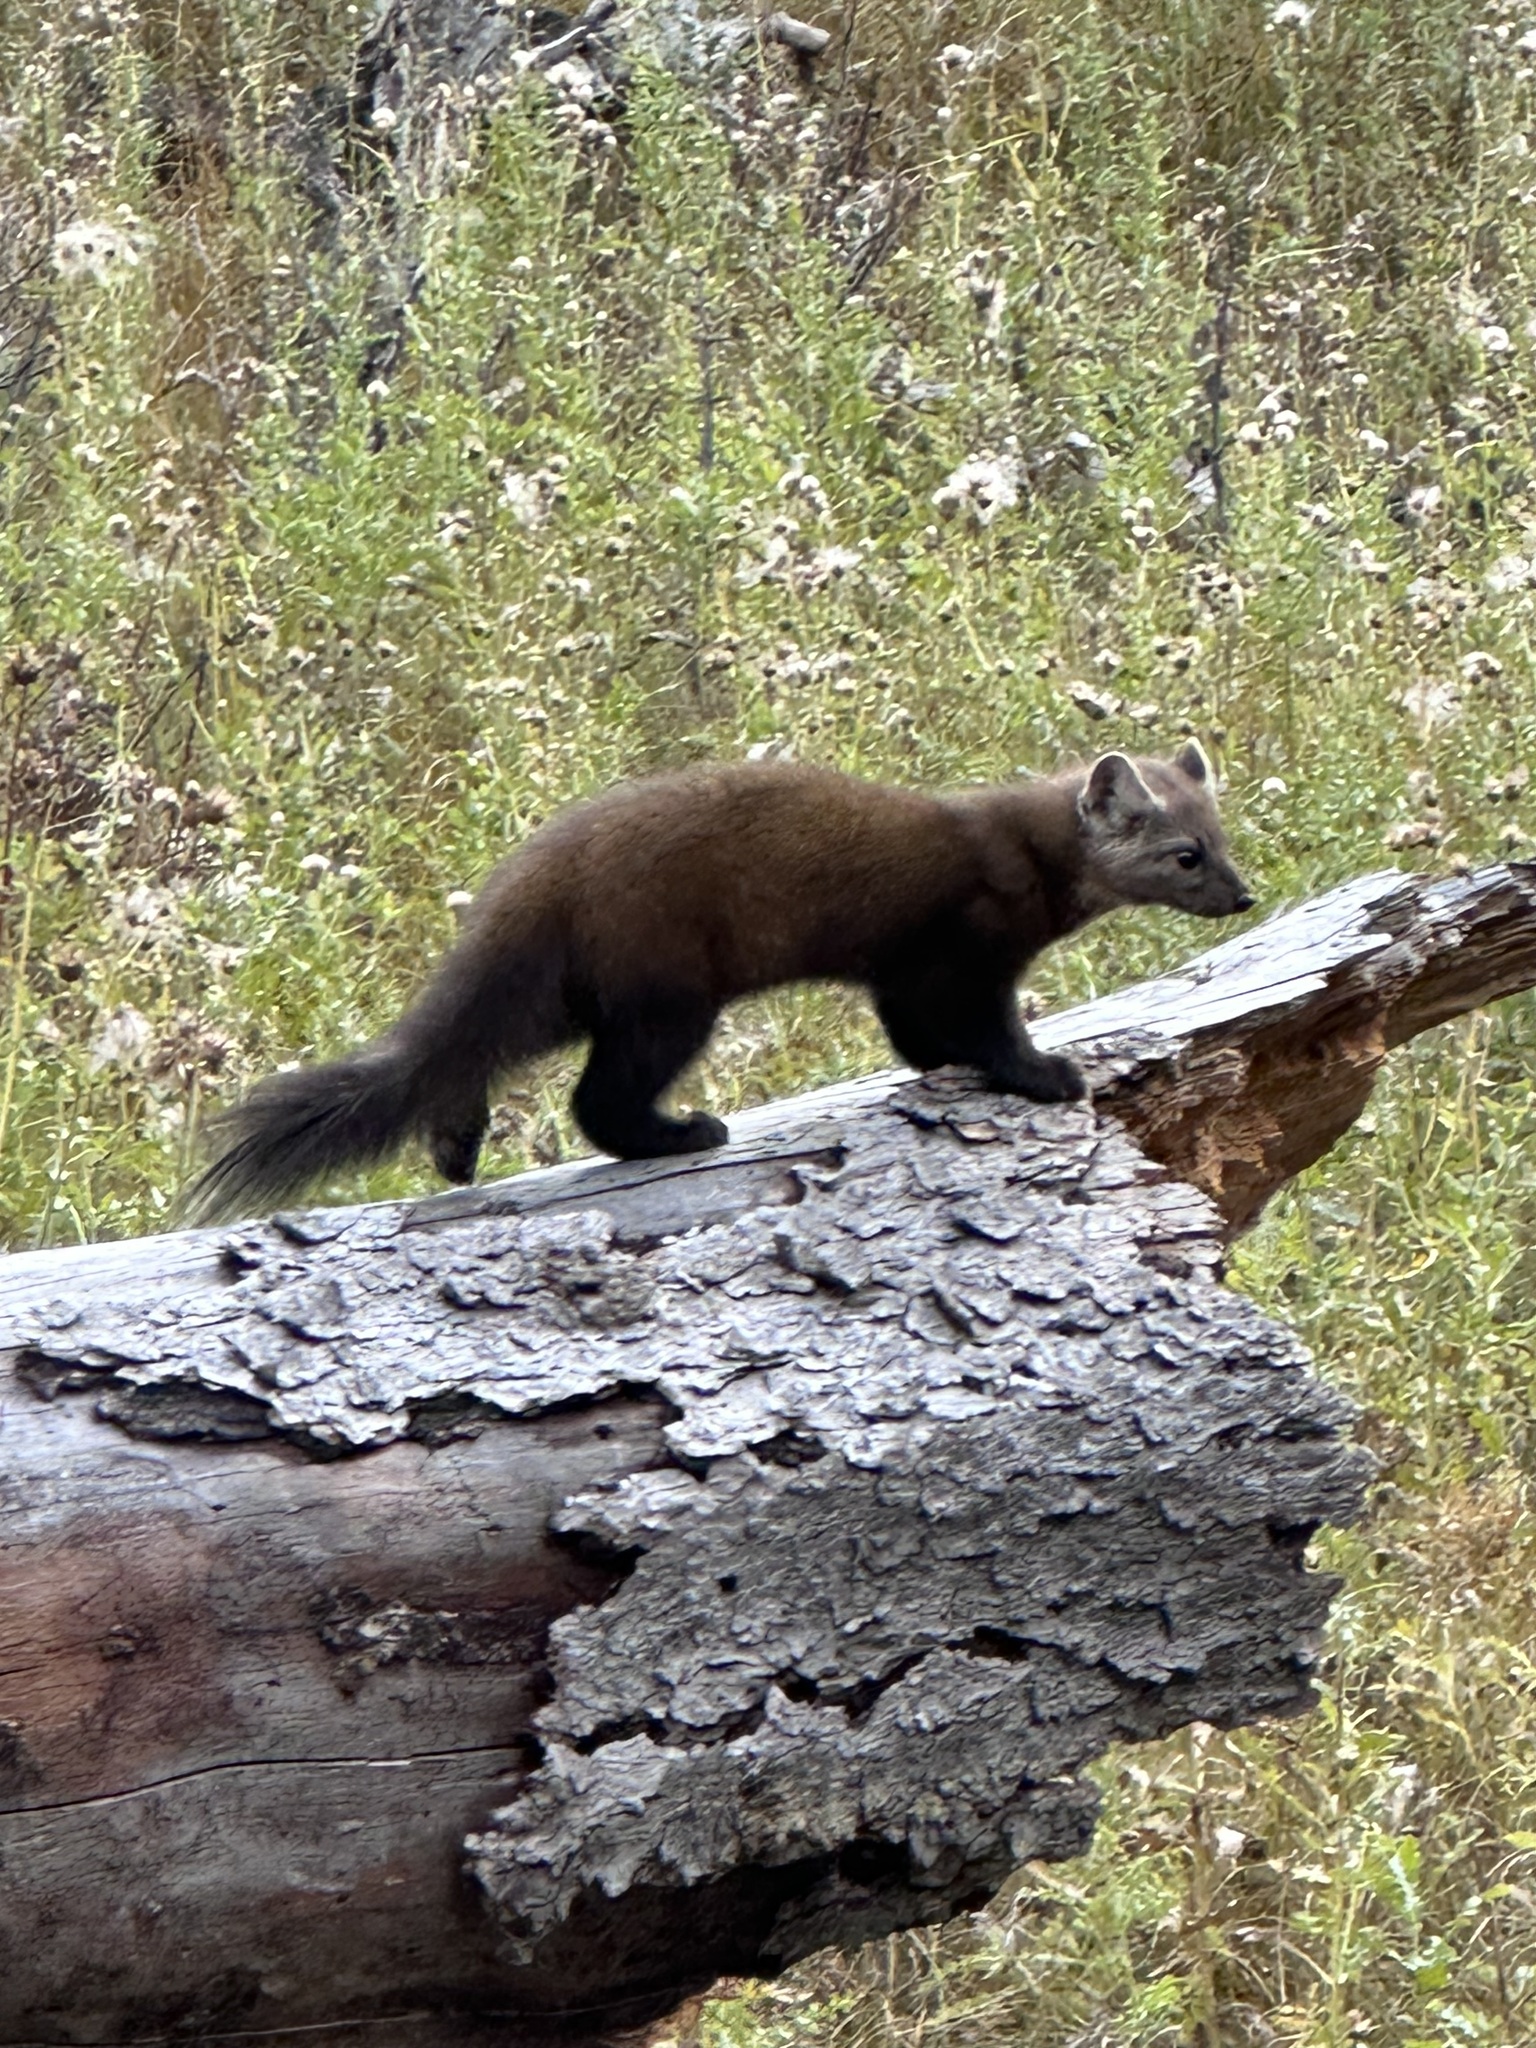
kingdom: Animalia
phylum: Chordata
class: Mammalia
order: Carnivora
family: Mustelidae
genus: Martes
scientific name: Martes americana
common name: American marten
